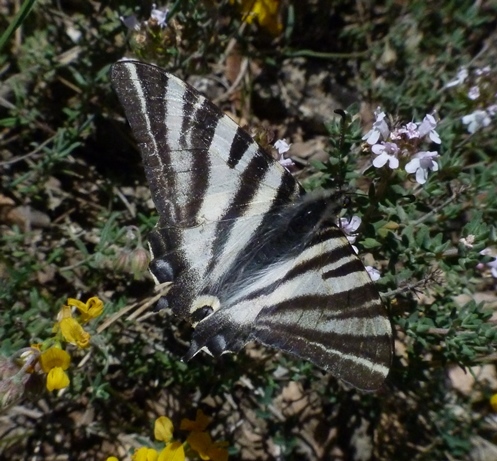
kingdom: Animalia
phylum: Arthropoda
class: Insecta
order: Lepidoptera
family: Papilionidae
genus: Iphiclides
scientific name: Iphiclides feisthamelii
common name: Iberian scarce swallowtail
